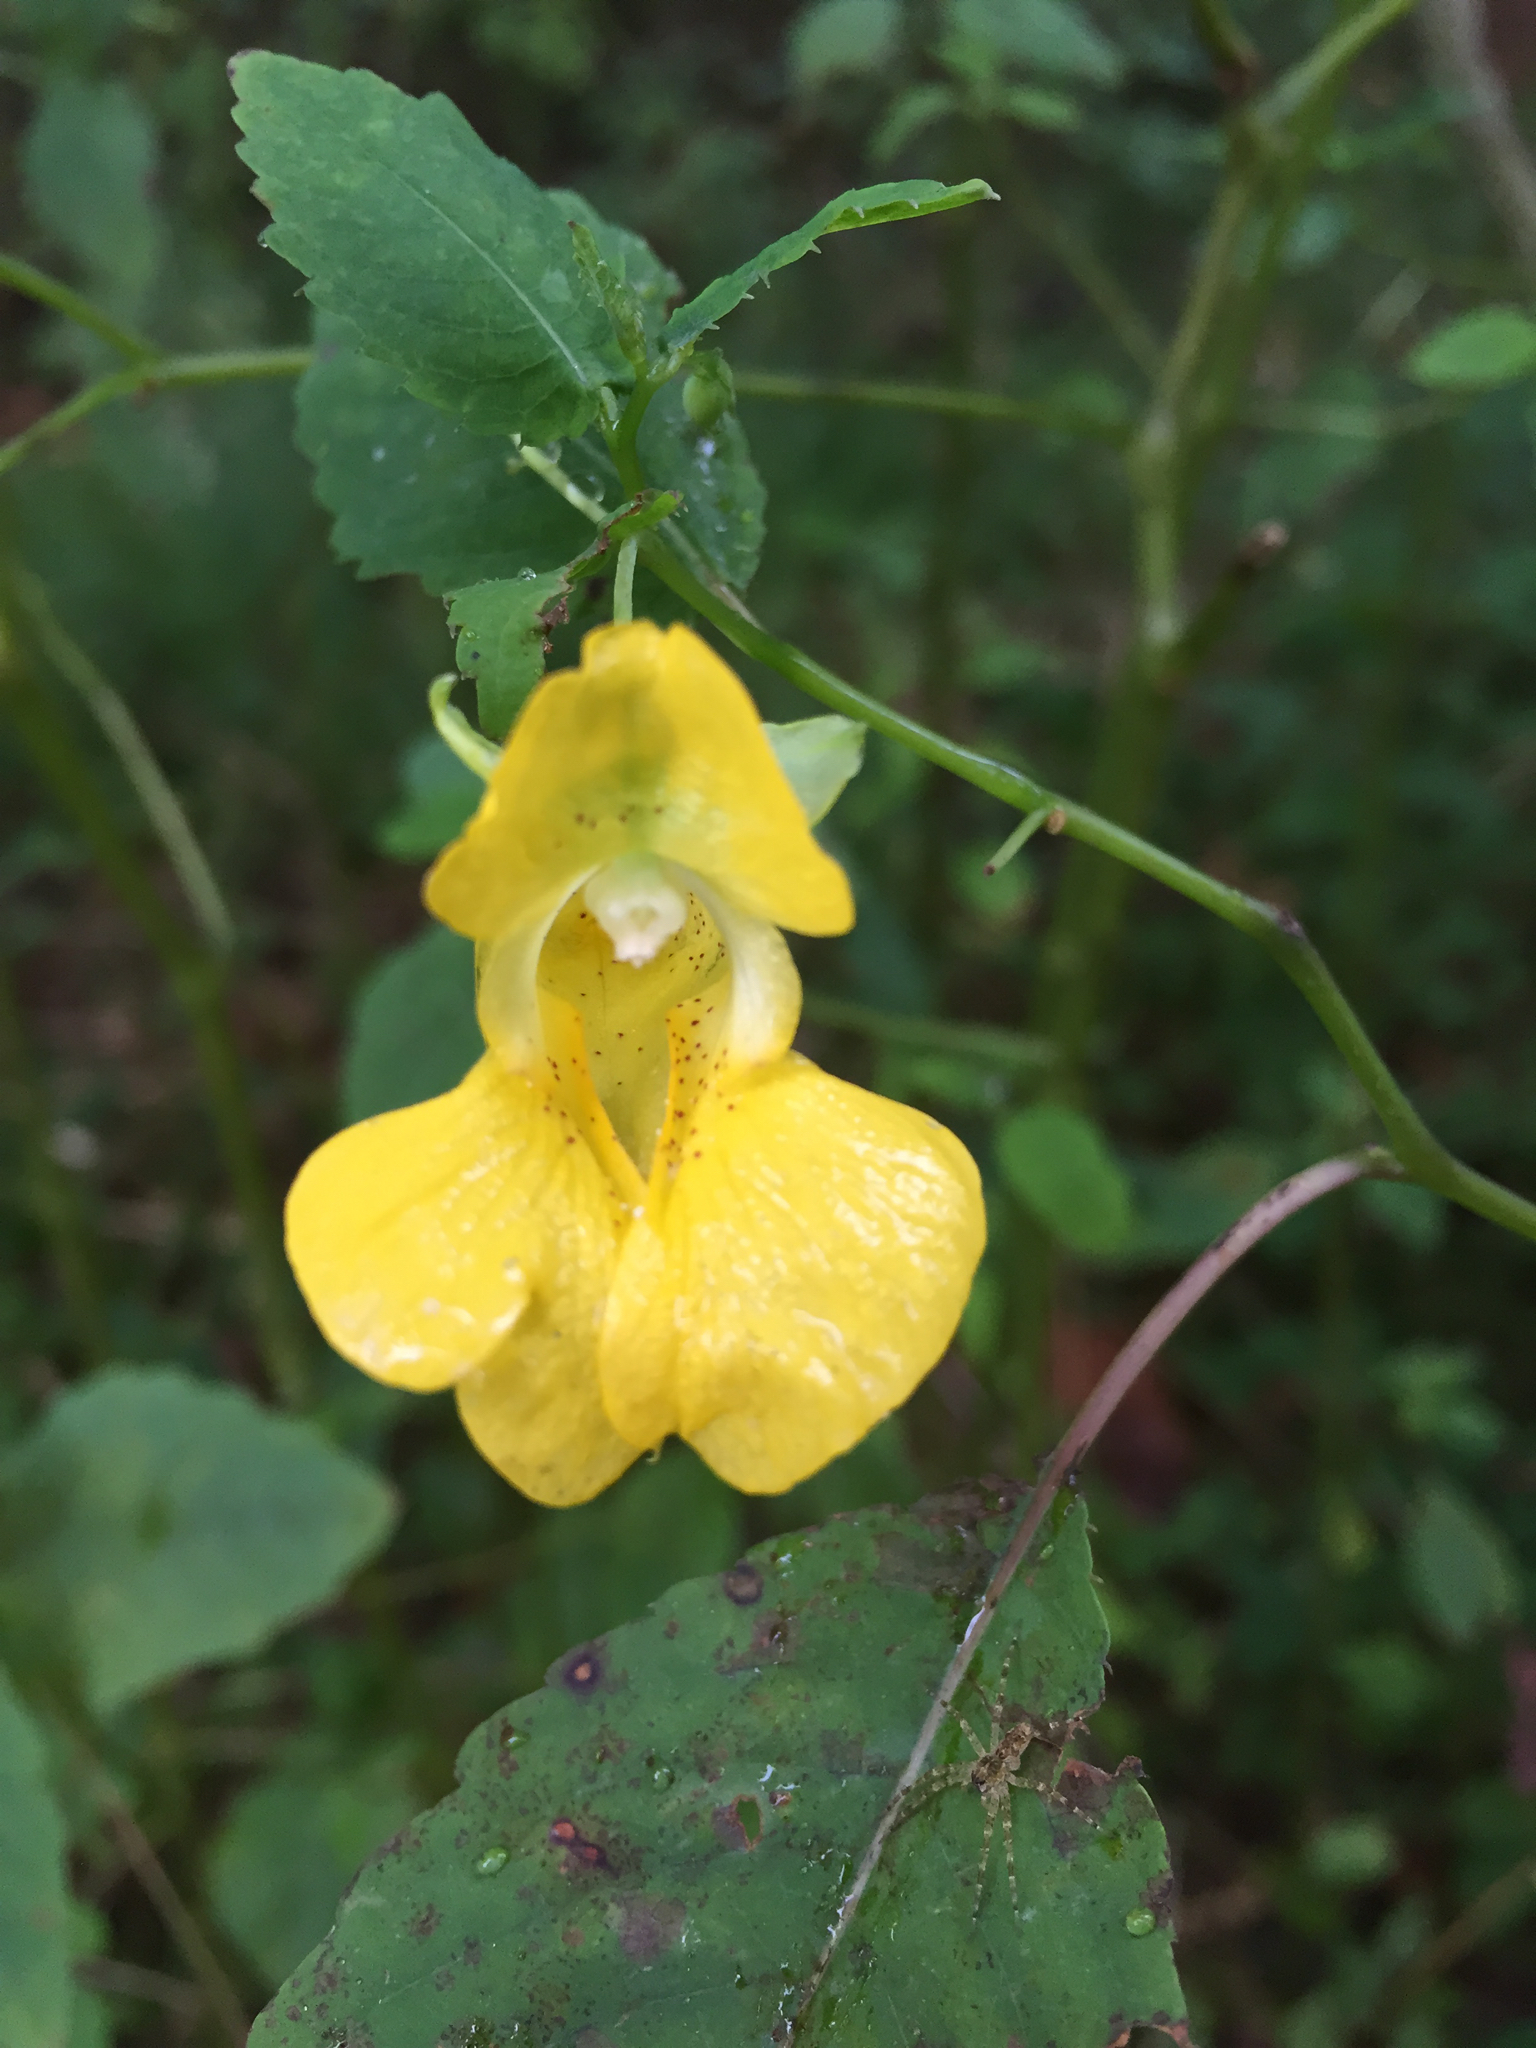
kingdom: Plantae
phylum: Tracheophyta
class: Magnoliopsida
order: Ericales
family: Balsaminaceae
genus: Impatiens
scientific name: Impatiens pallida
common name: Pale snapweed
